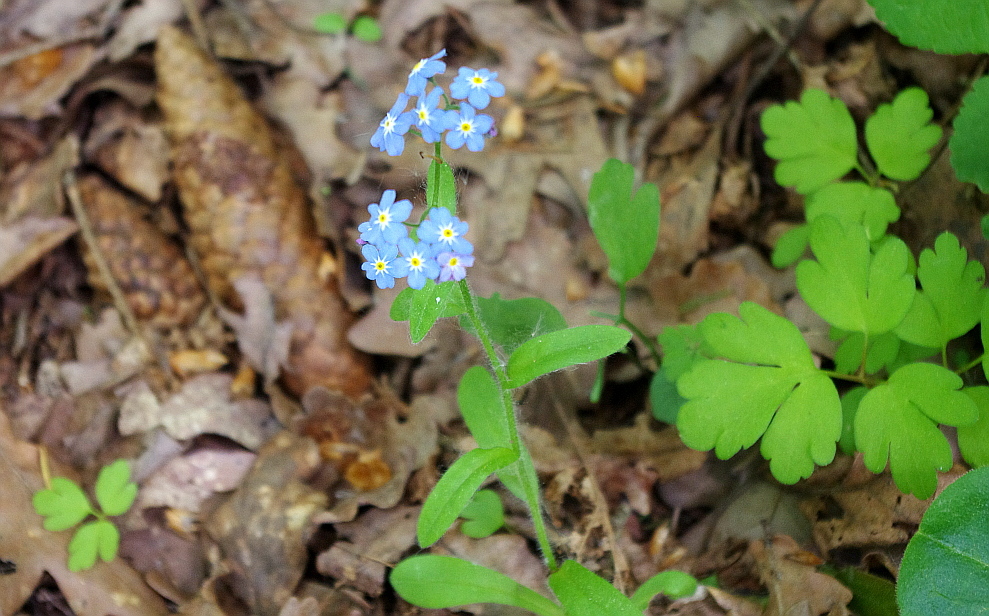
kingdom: Plantae
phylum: Tracheophyta
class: Magnoliopsida
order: Boraginales
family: Boraginaceae
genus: Myosotis
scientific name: Myosotis sylvatica
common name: Wood forget-me-not
